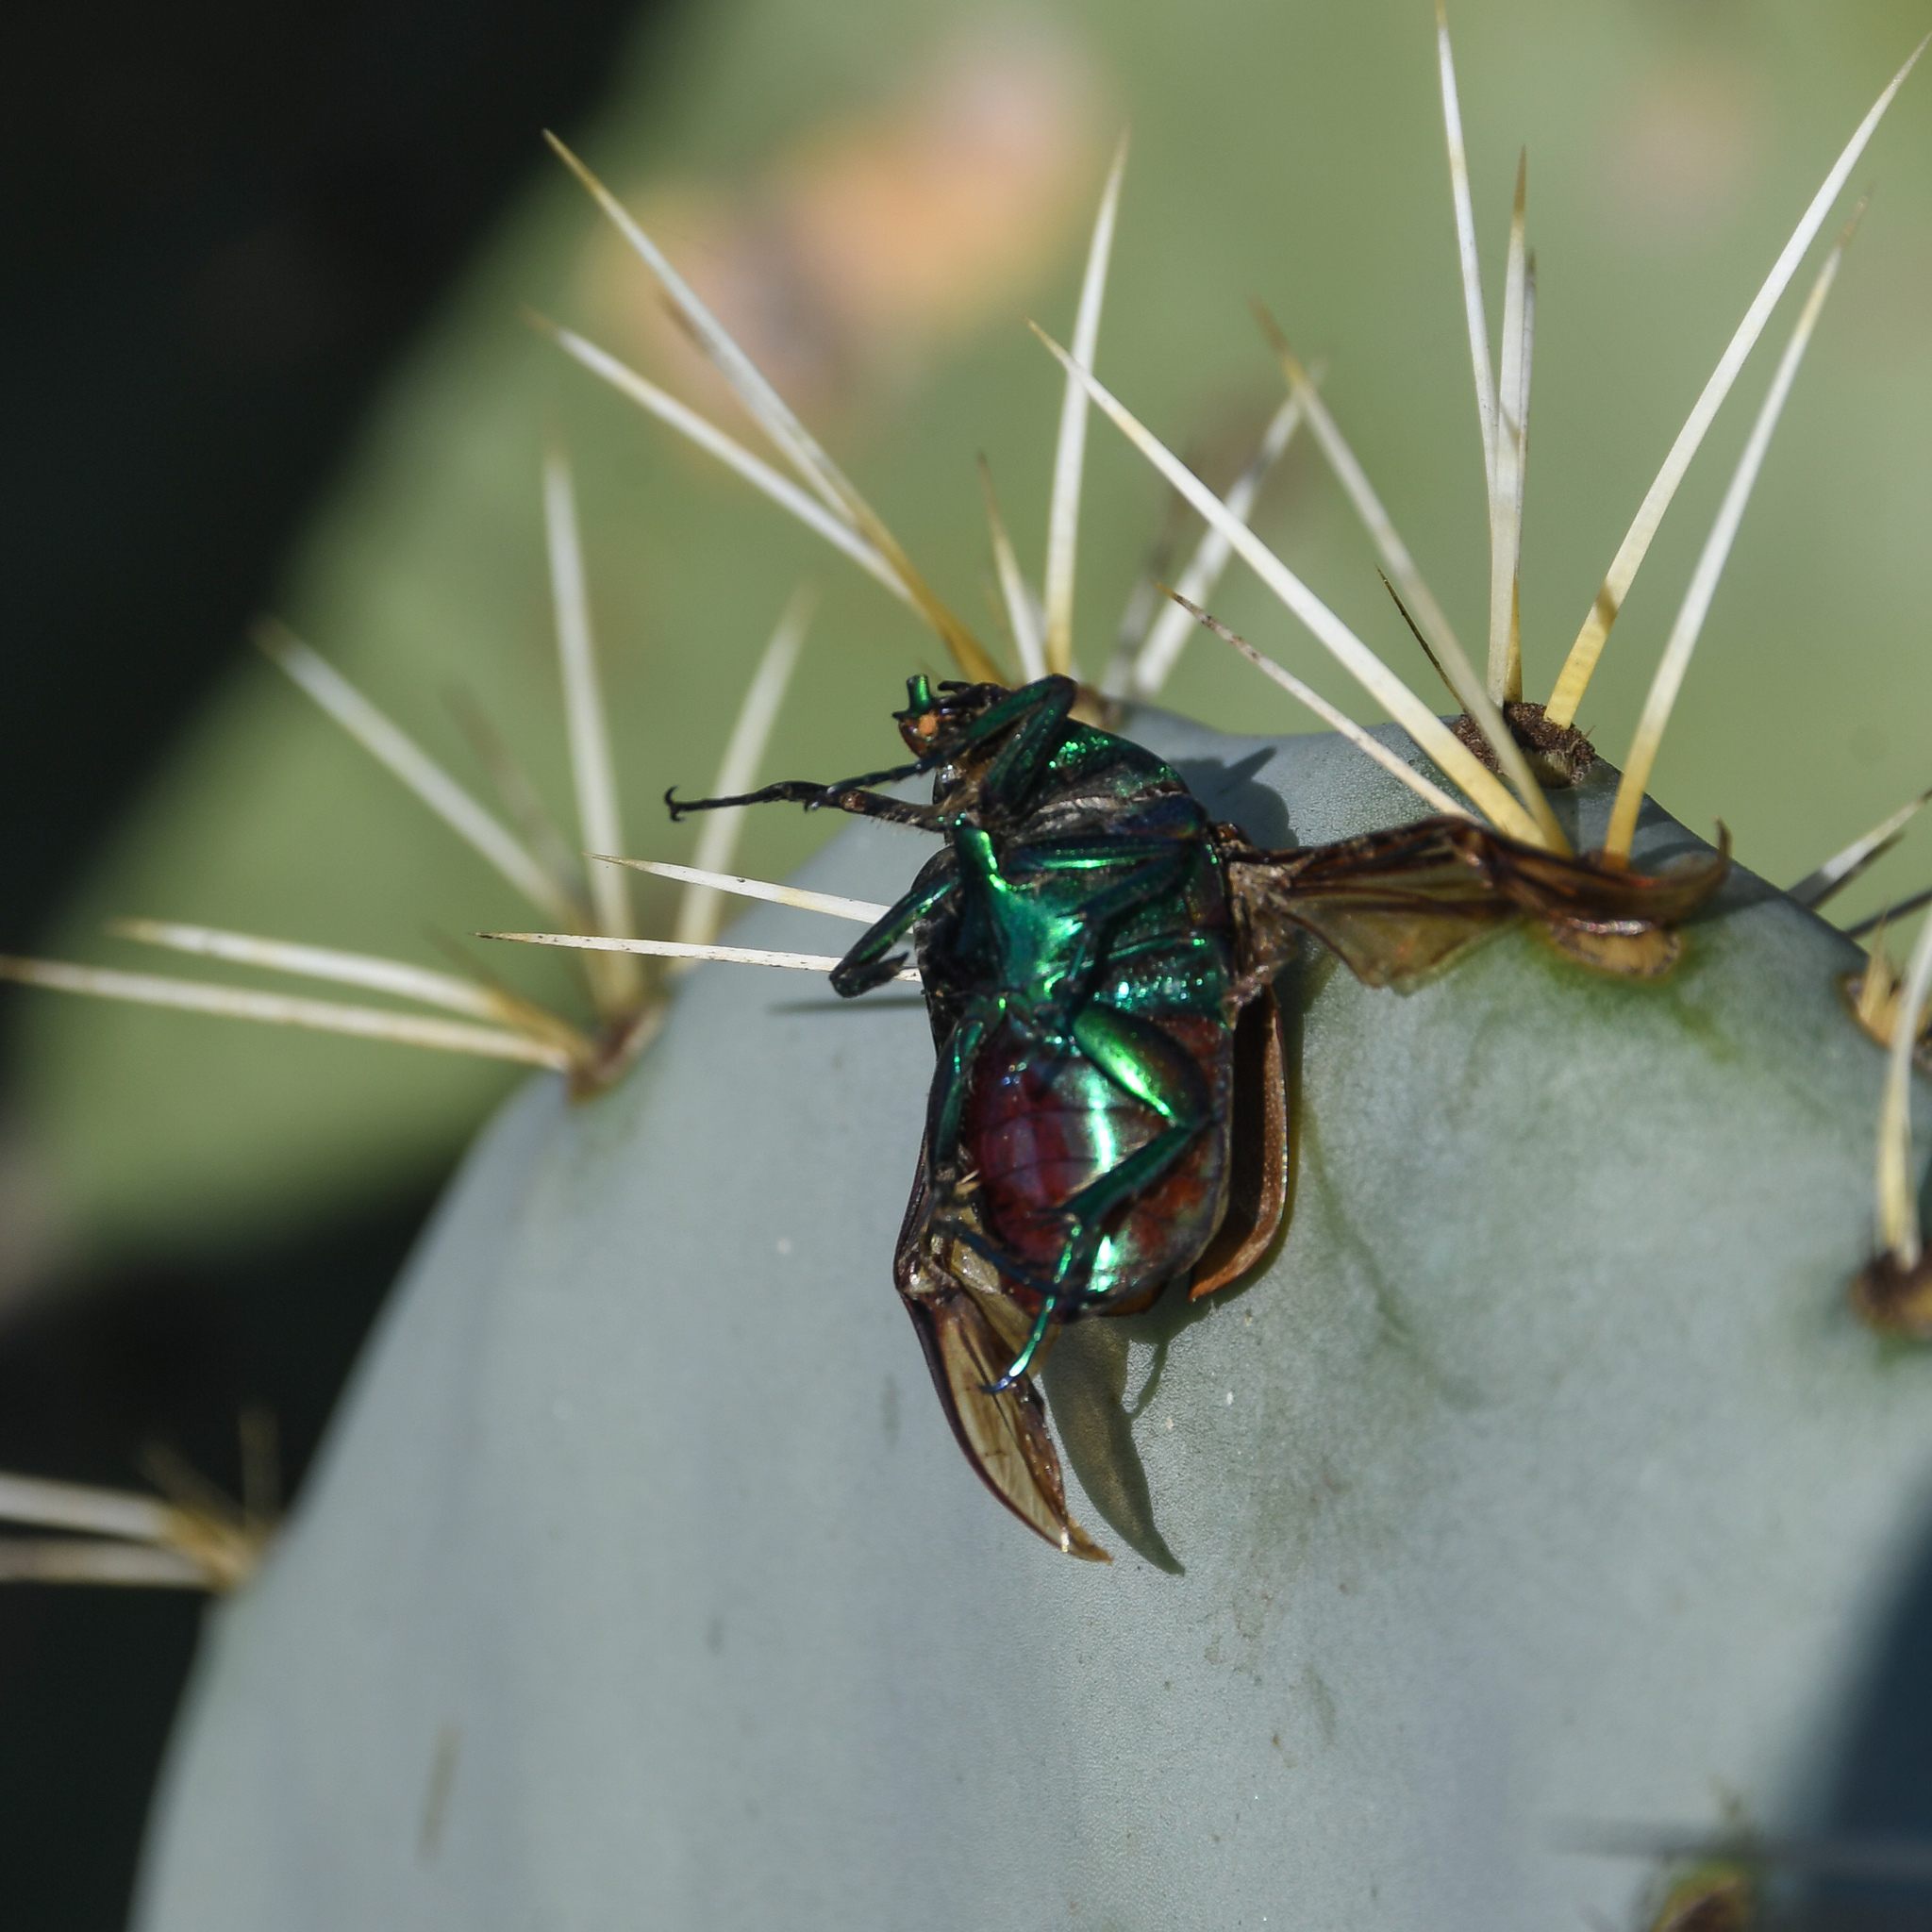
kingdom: Animalia
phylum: Arthropoda
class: Insecta
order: Coleoptera
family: Scarabaeidae
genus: Cotinis
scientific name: Cotinis mutabilis
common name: Figeater beetle
